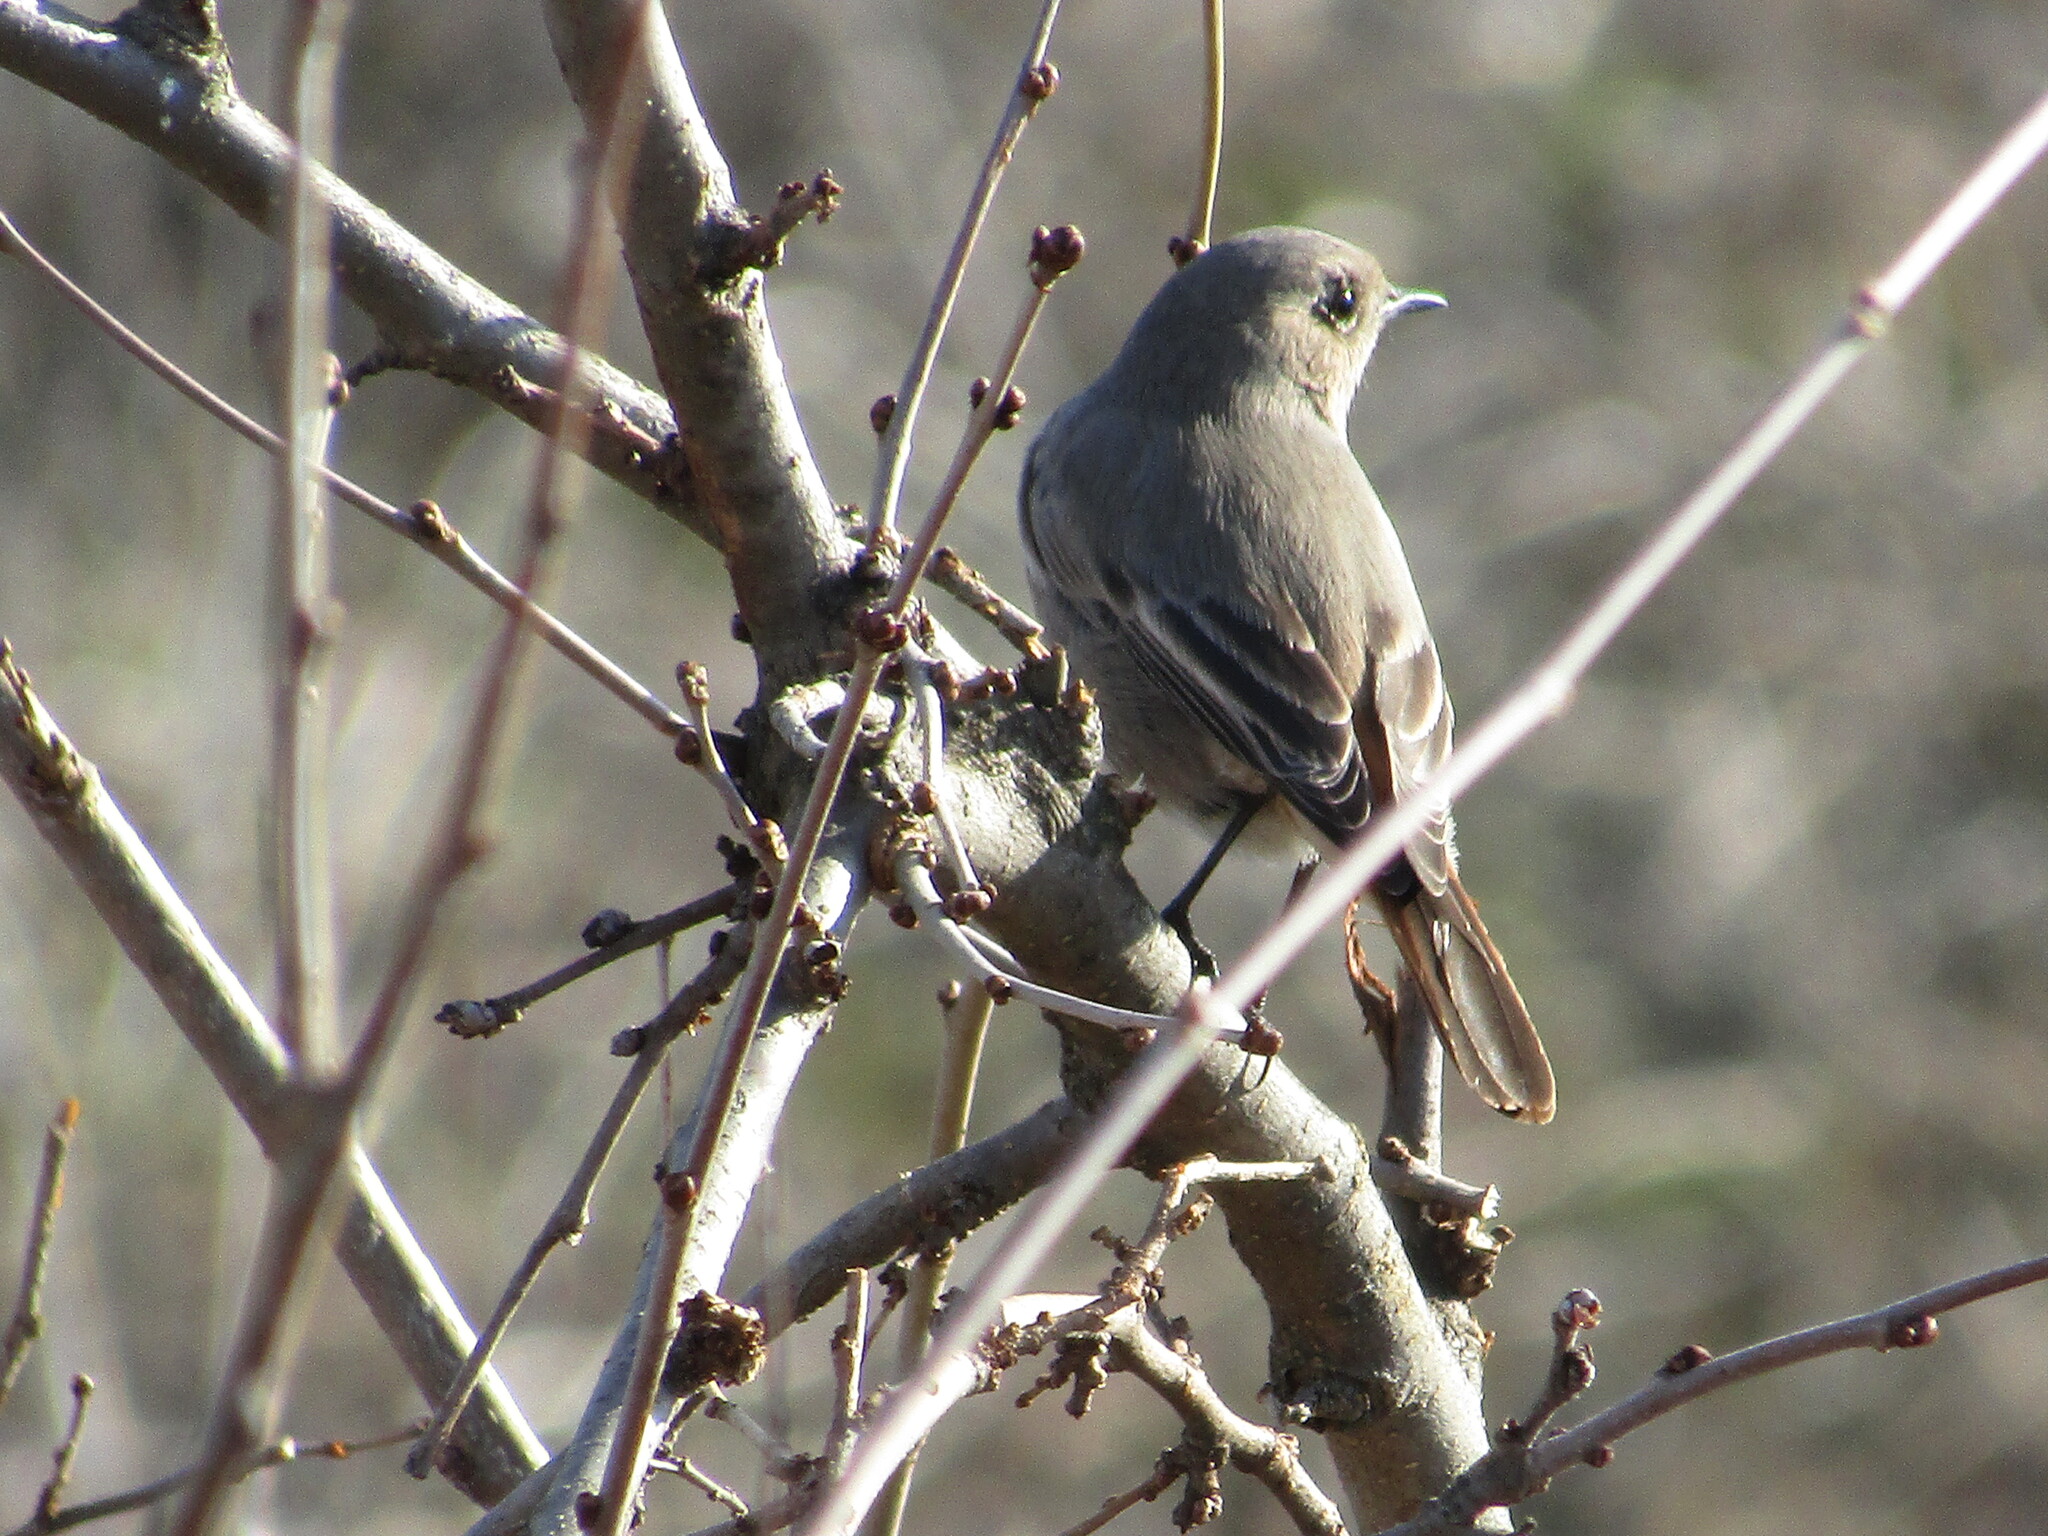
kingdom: Animalia
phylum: Chordata
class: Aves
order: Passeriformes
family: Muscicapidae
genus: Phoenicurus
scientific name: Phoenicurus ochruros
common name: Black redstart
